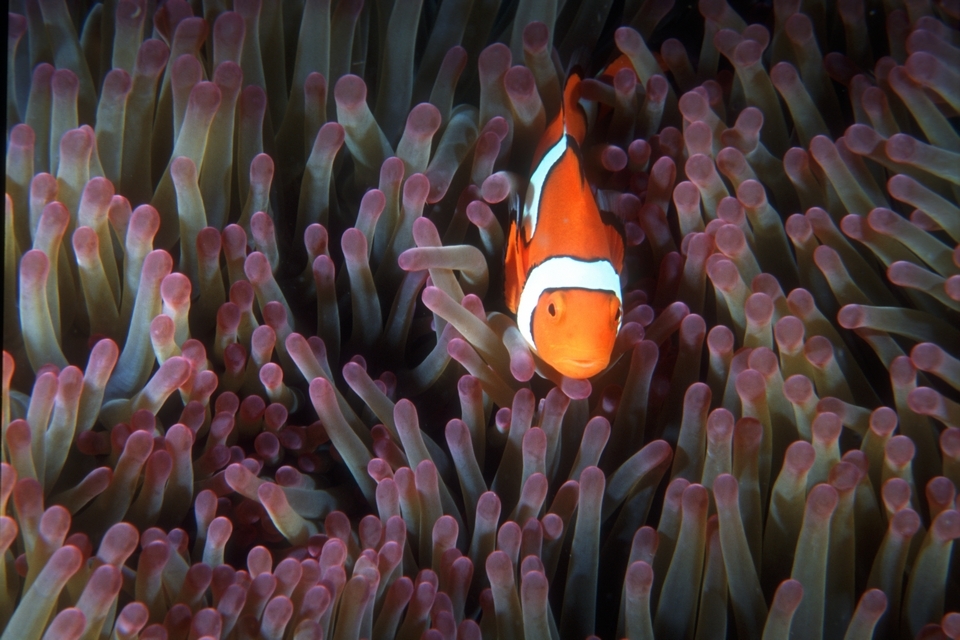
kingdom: Animalia
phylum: Chordata
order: Perciformes
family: Pomacentridae
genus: Amphiprion
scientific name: Amphiprion percula
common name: Clown anemonefish
